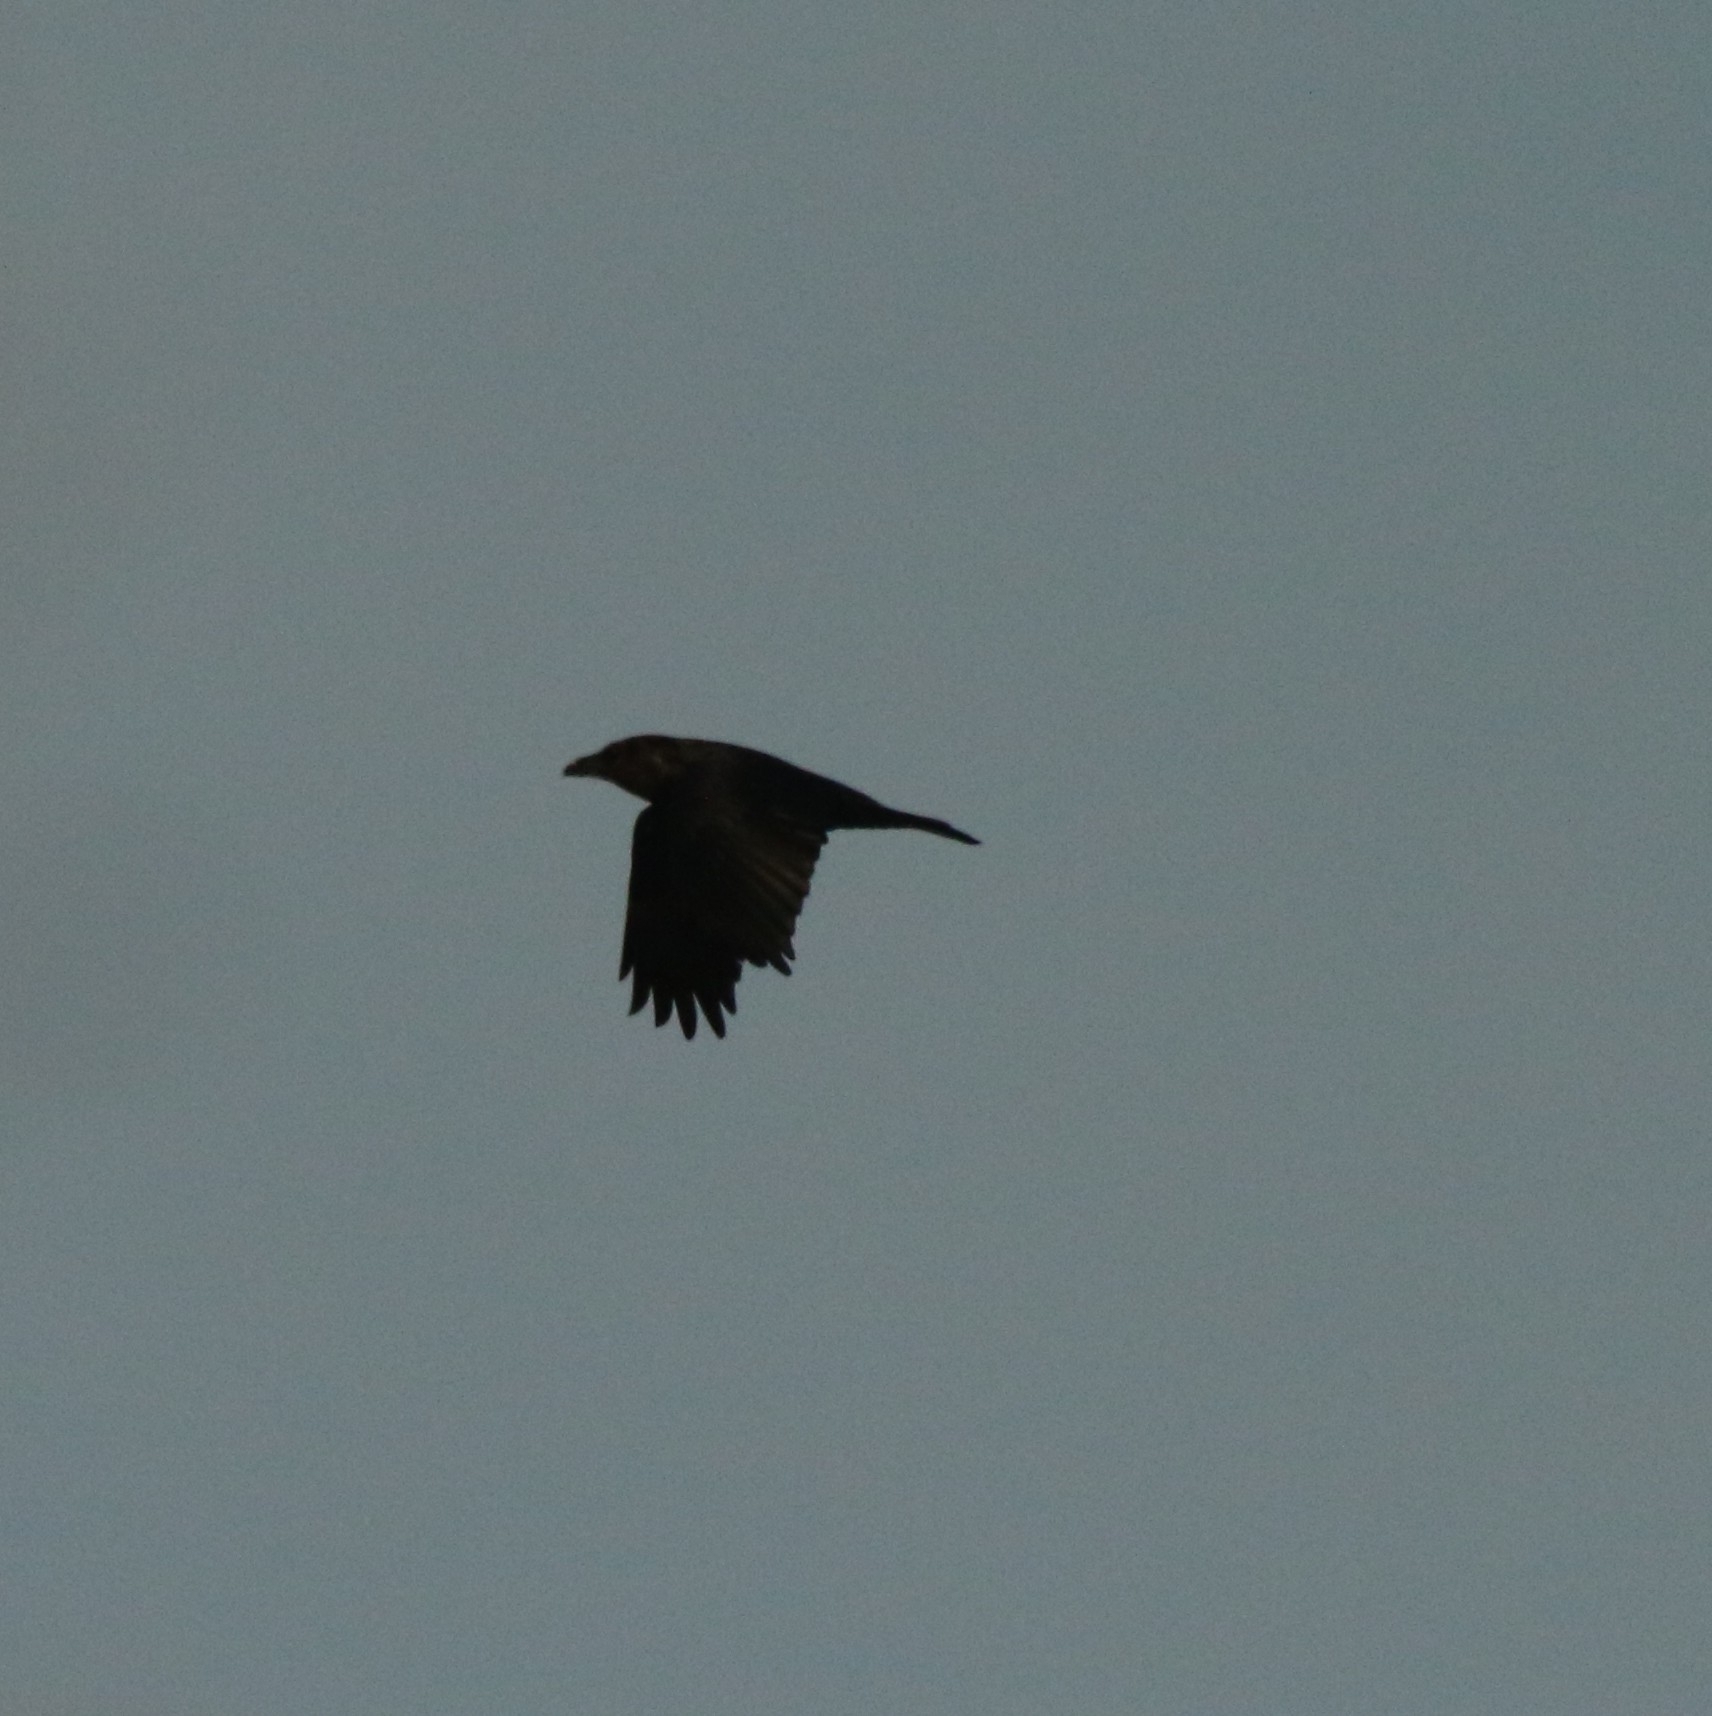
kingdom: Animalia
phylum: Chordata
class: Aves
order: Passeriformes
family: Corvidae
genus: Corvus
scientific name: Corvus corax
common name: Common raven
